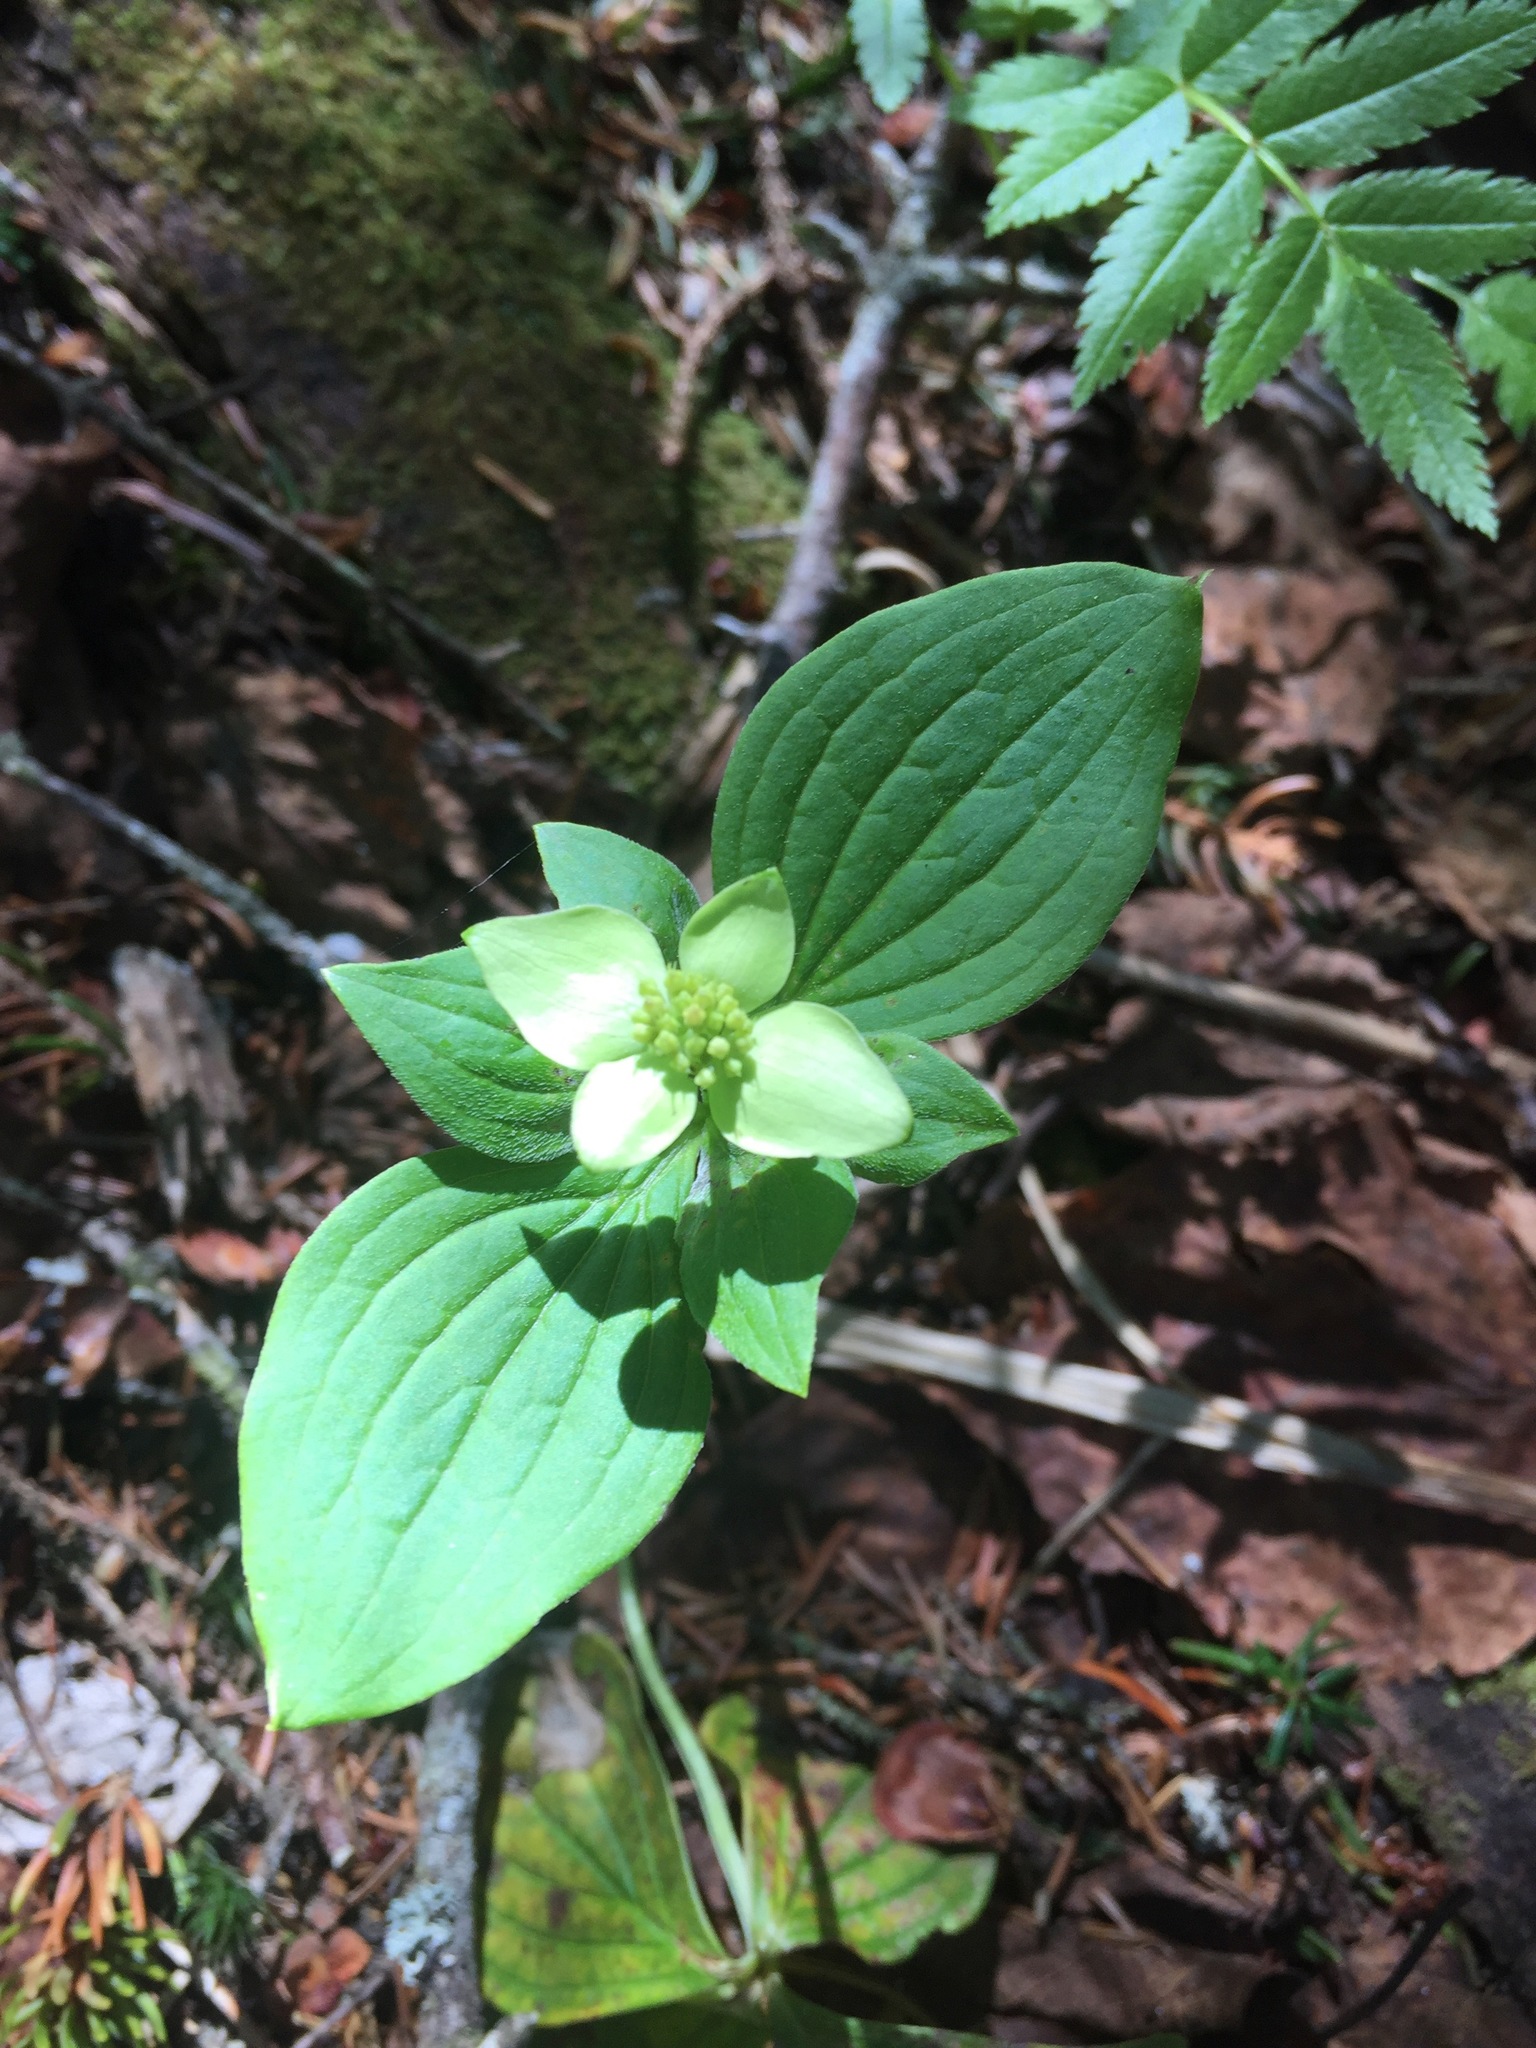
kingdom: Plantae
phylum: Tracheophyta
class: Magnoliopsida
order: Cornales
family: Cornaceae
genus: Cornus
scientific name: Cornus canadensis
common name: Creeping dogwood
